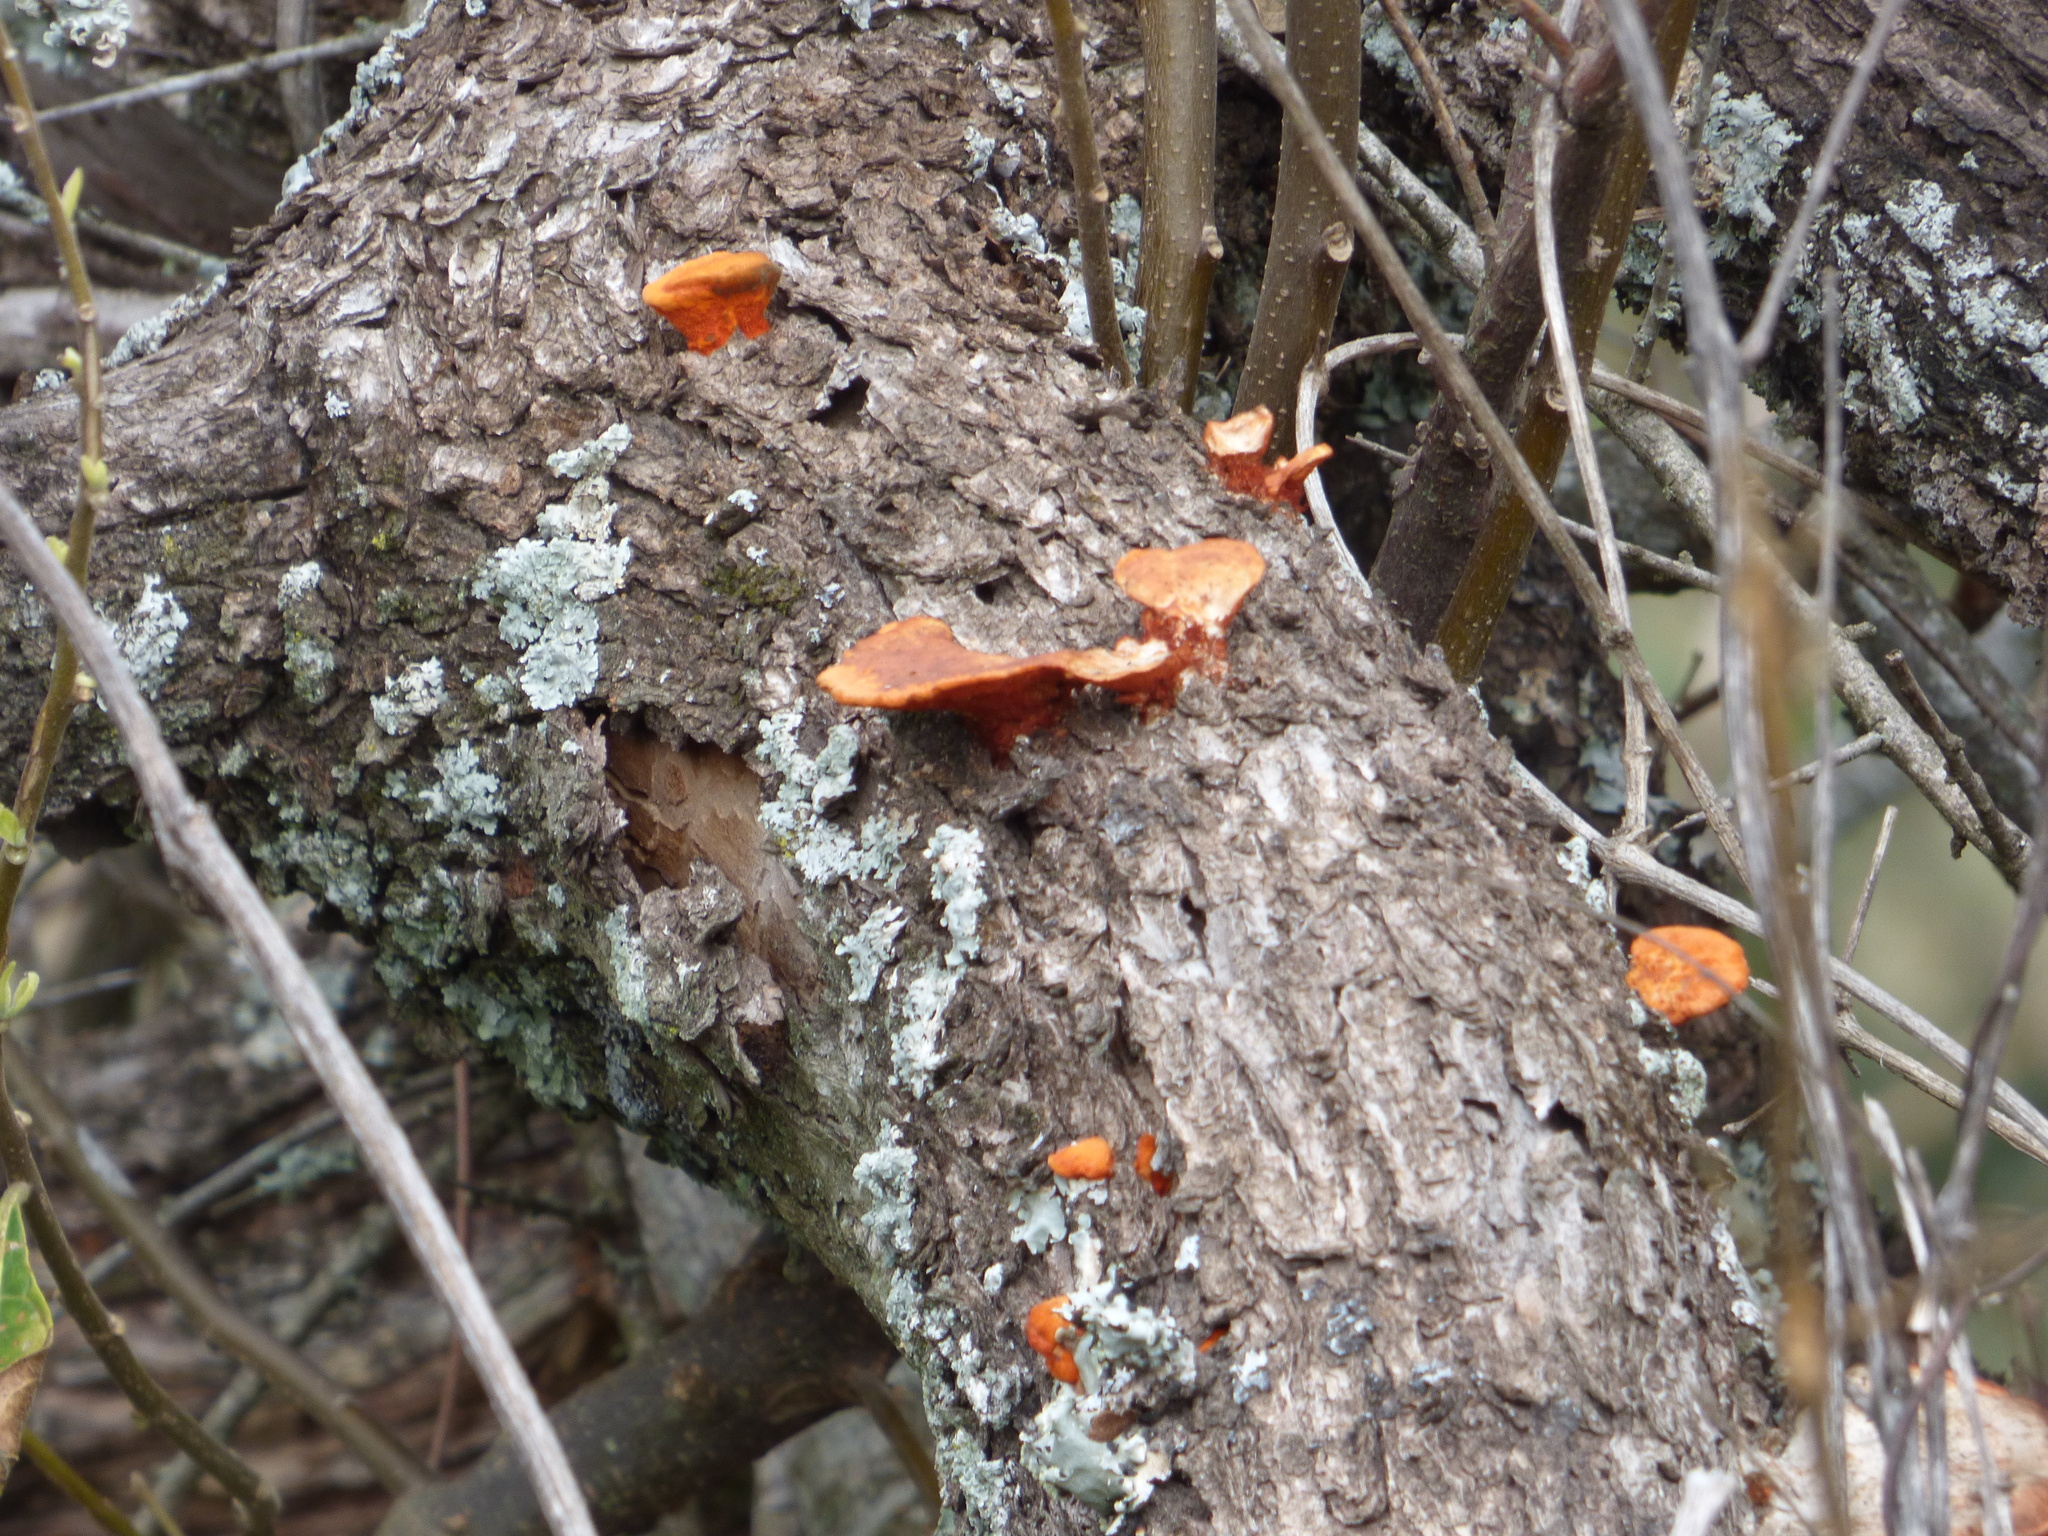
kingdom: Fungi
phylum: Basidiomycota
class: Agaricomycetes
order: Polyporales
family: Polyporaceae
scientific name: Polyporaceae
